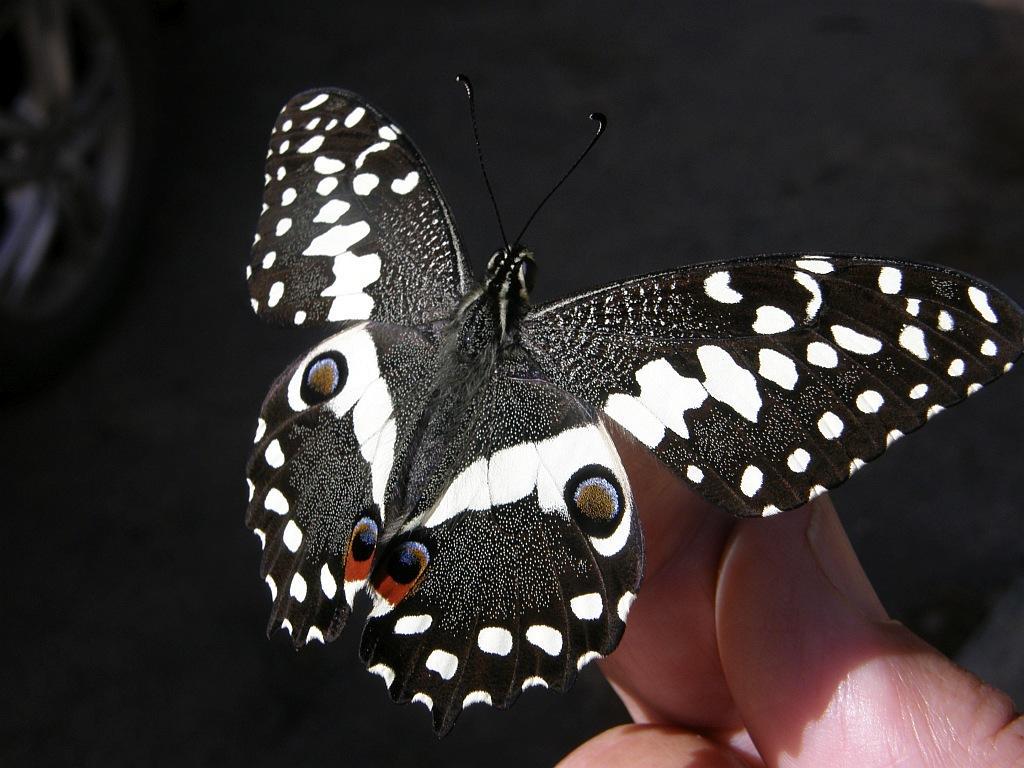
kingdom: Animalia
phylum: Arthropoda
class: Insecta
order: Lepidoptera
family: Papilionidae
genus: Papilio
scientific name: Papilio demodocus
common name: Christmas butterfly
